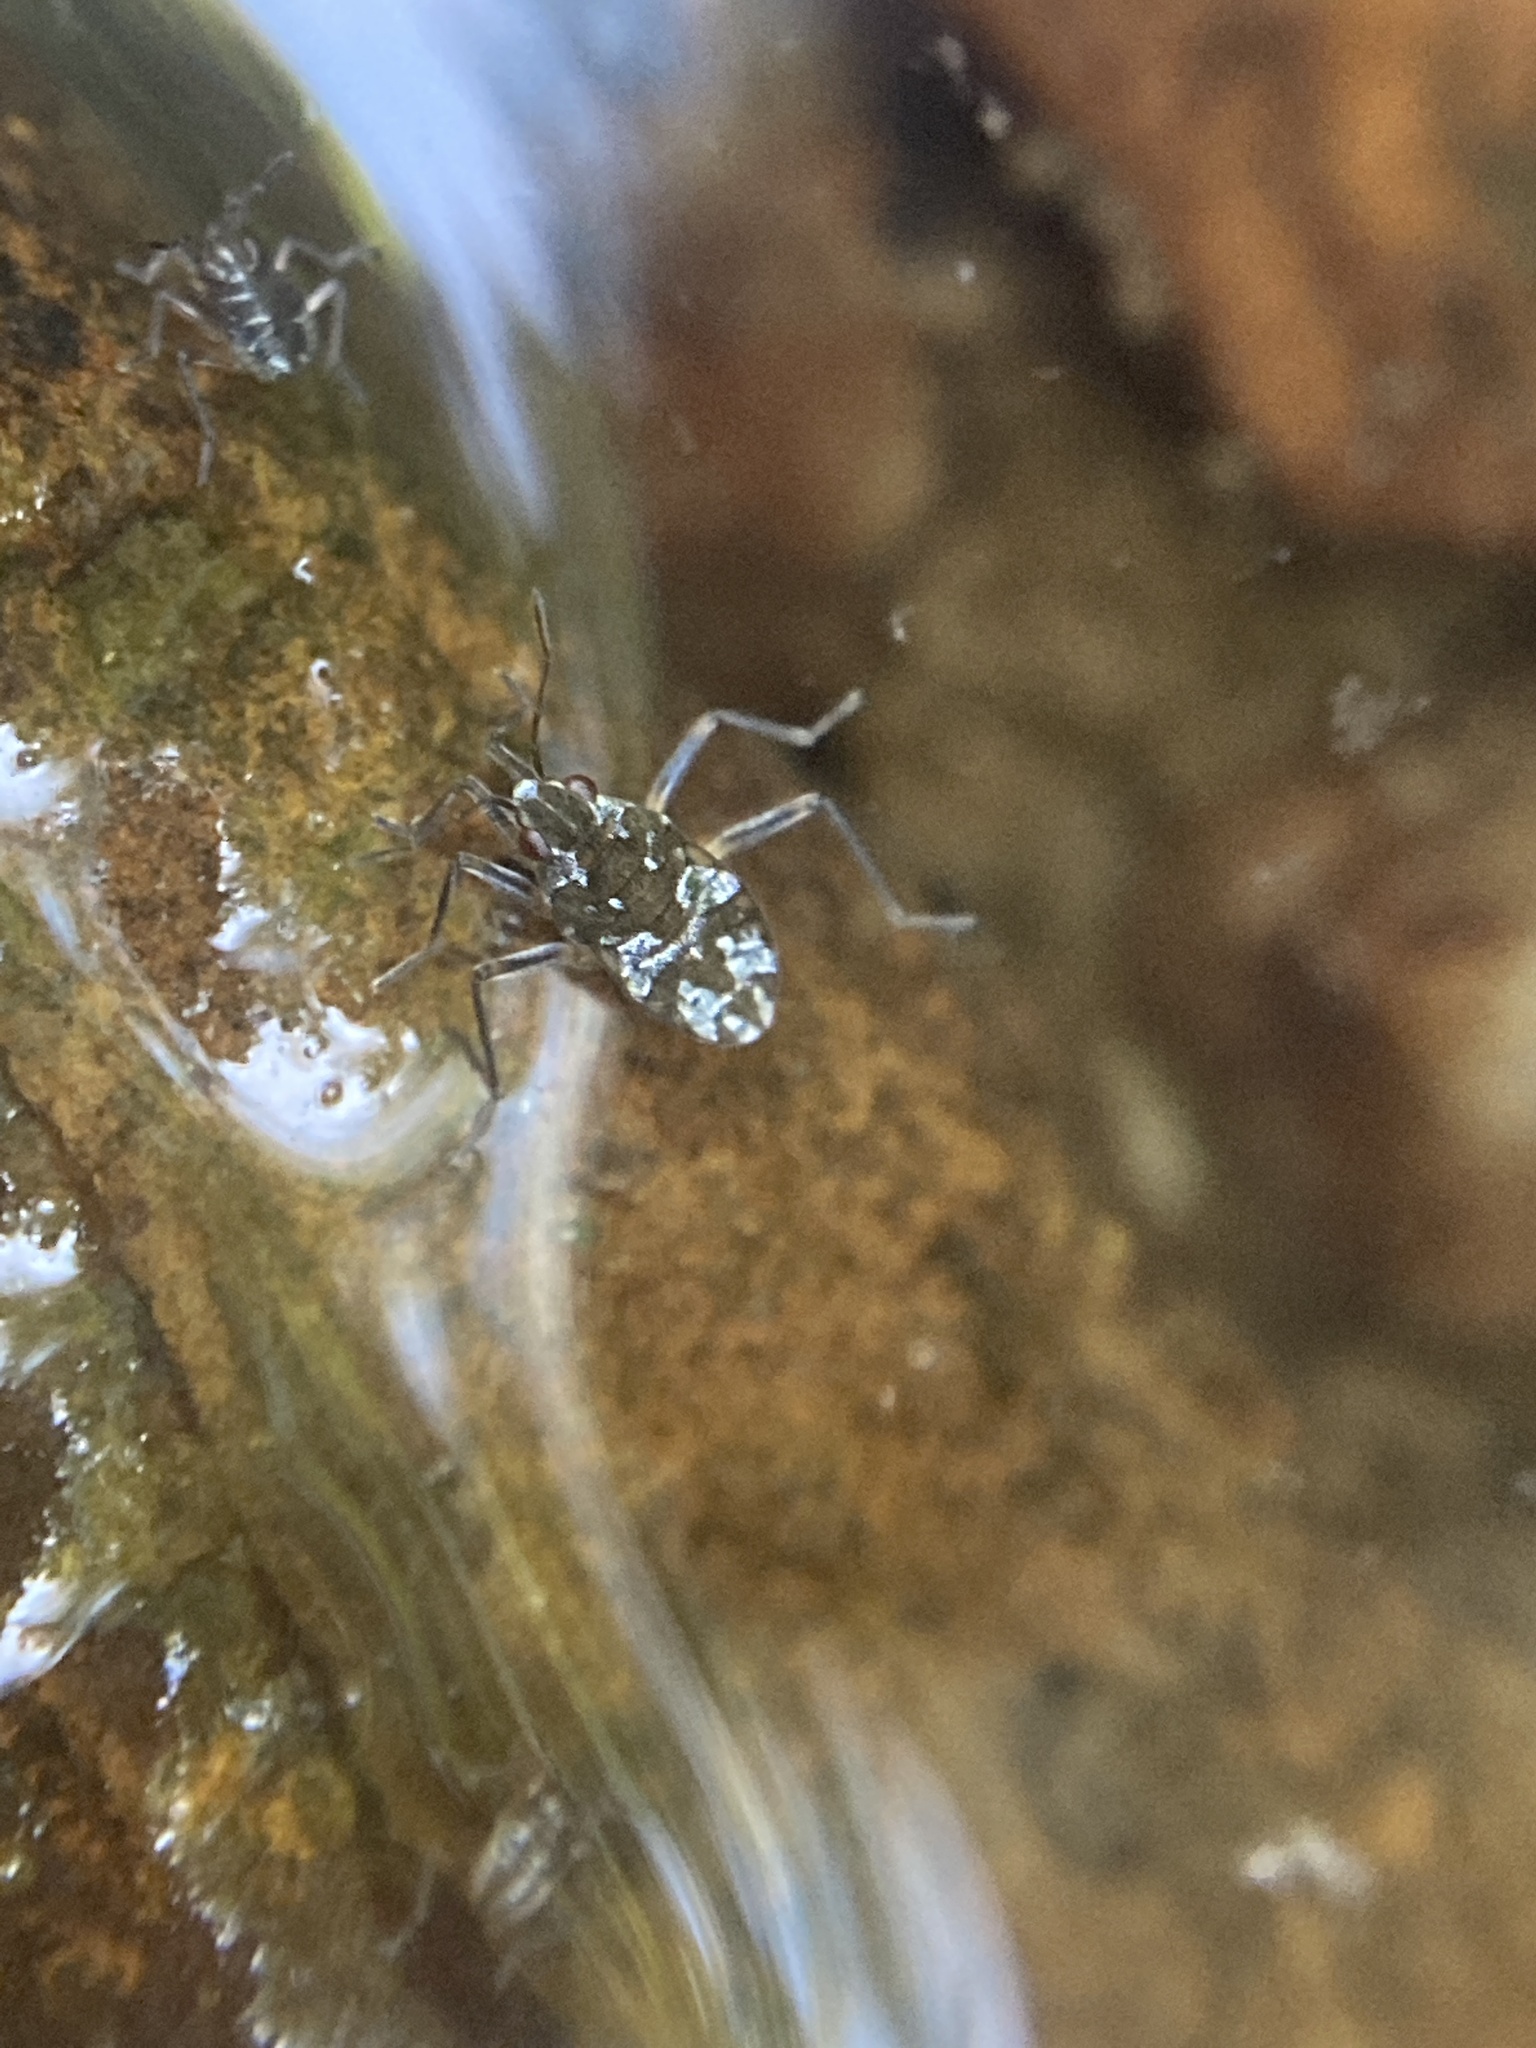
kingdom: Animalia
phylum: Arthropoda
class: Insecta
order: Hemiptera
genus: Kirkaldya
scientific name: Kirkaldya
